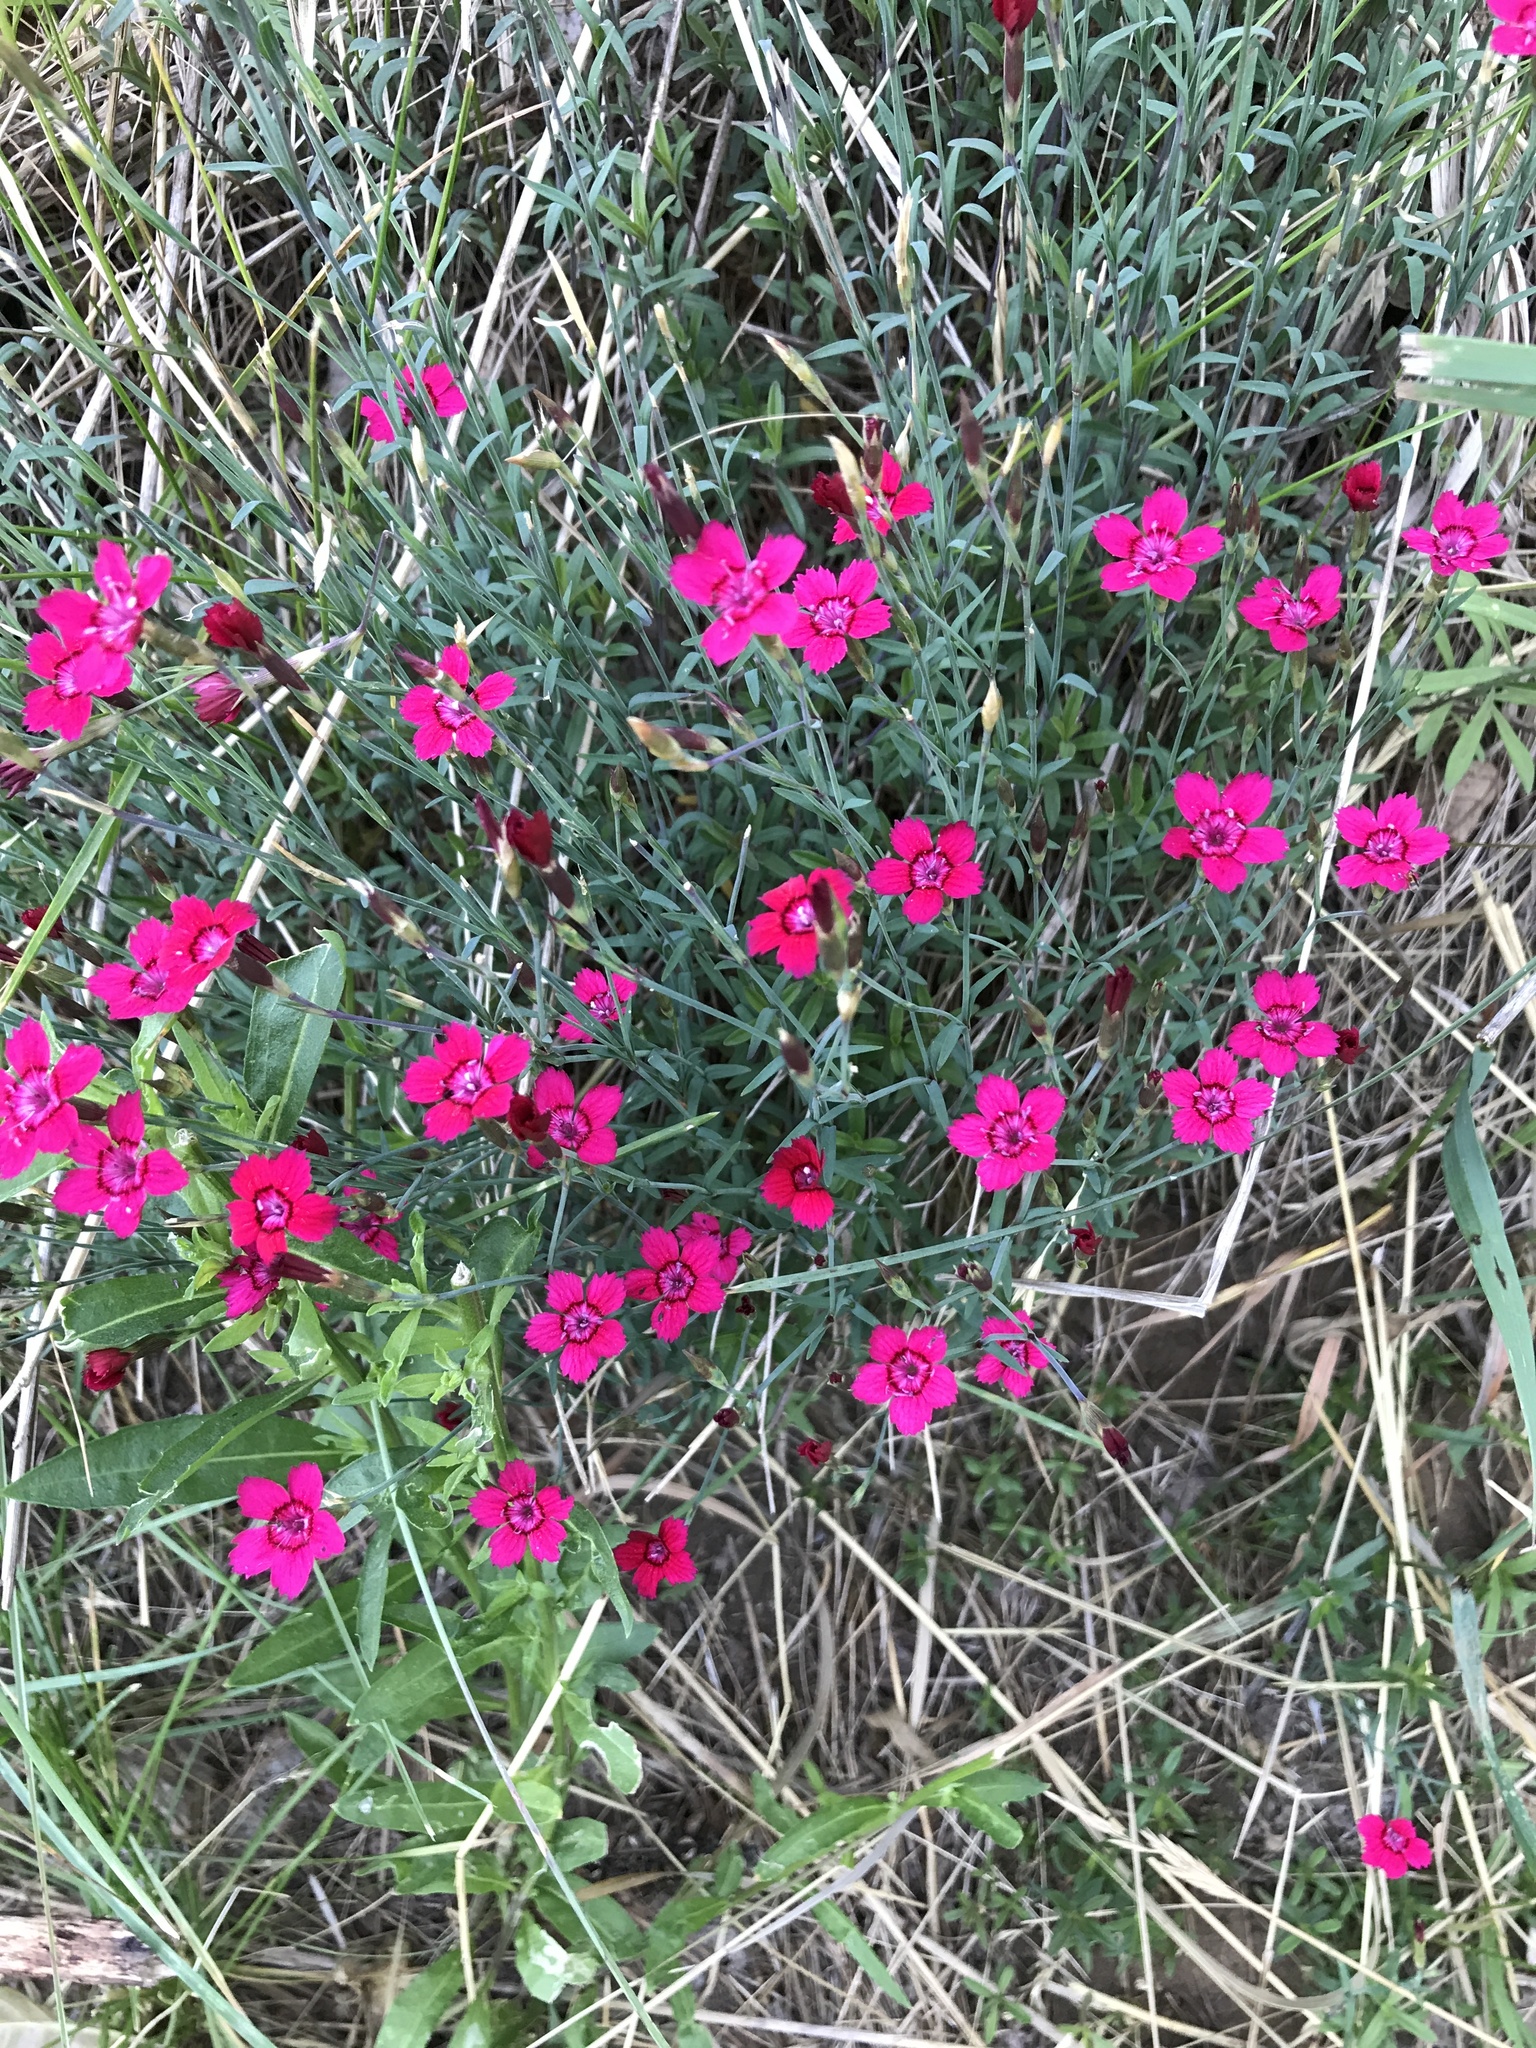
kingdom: Plantae
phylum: Tracheophyta
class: Magnoliopsida
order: Caryophyllales
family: Caryophyllaceae
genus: Dianthus
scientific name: Dianthus deltoides
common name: Maiden pink
